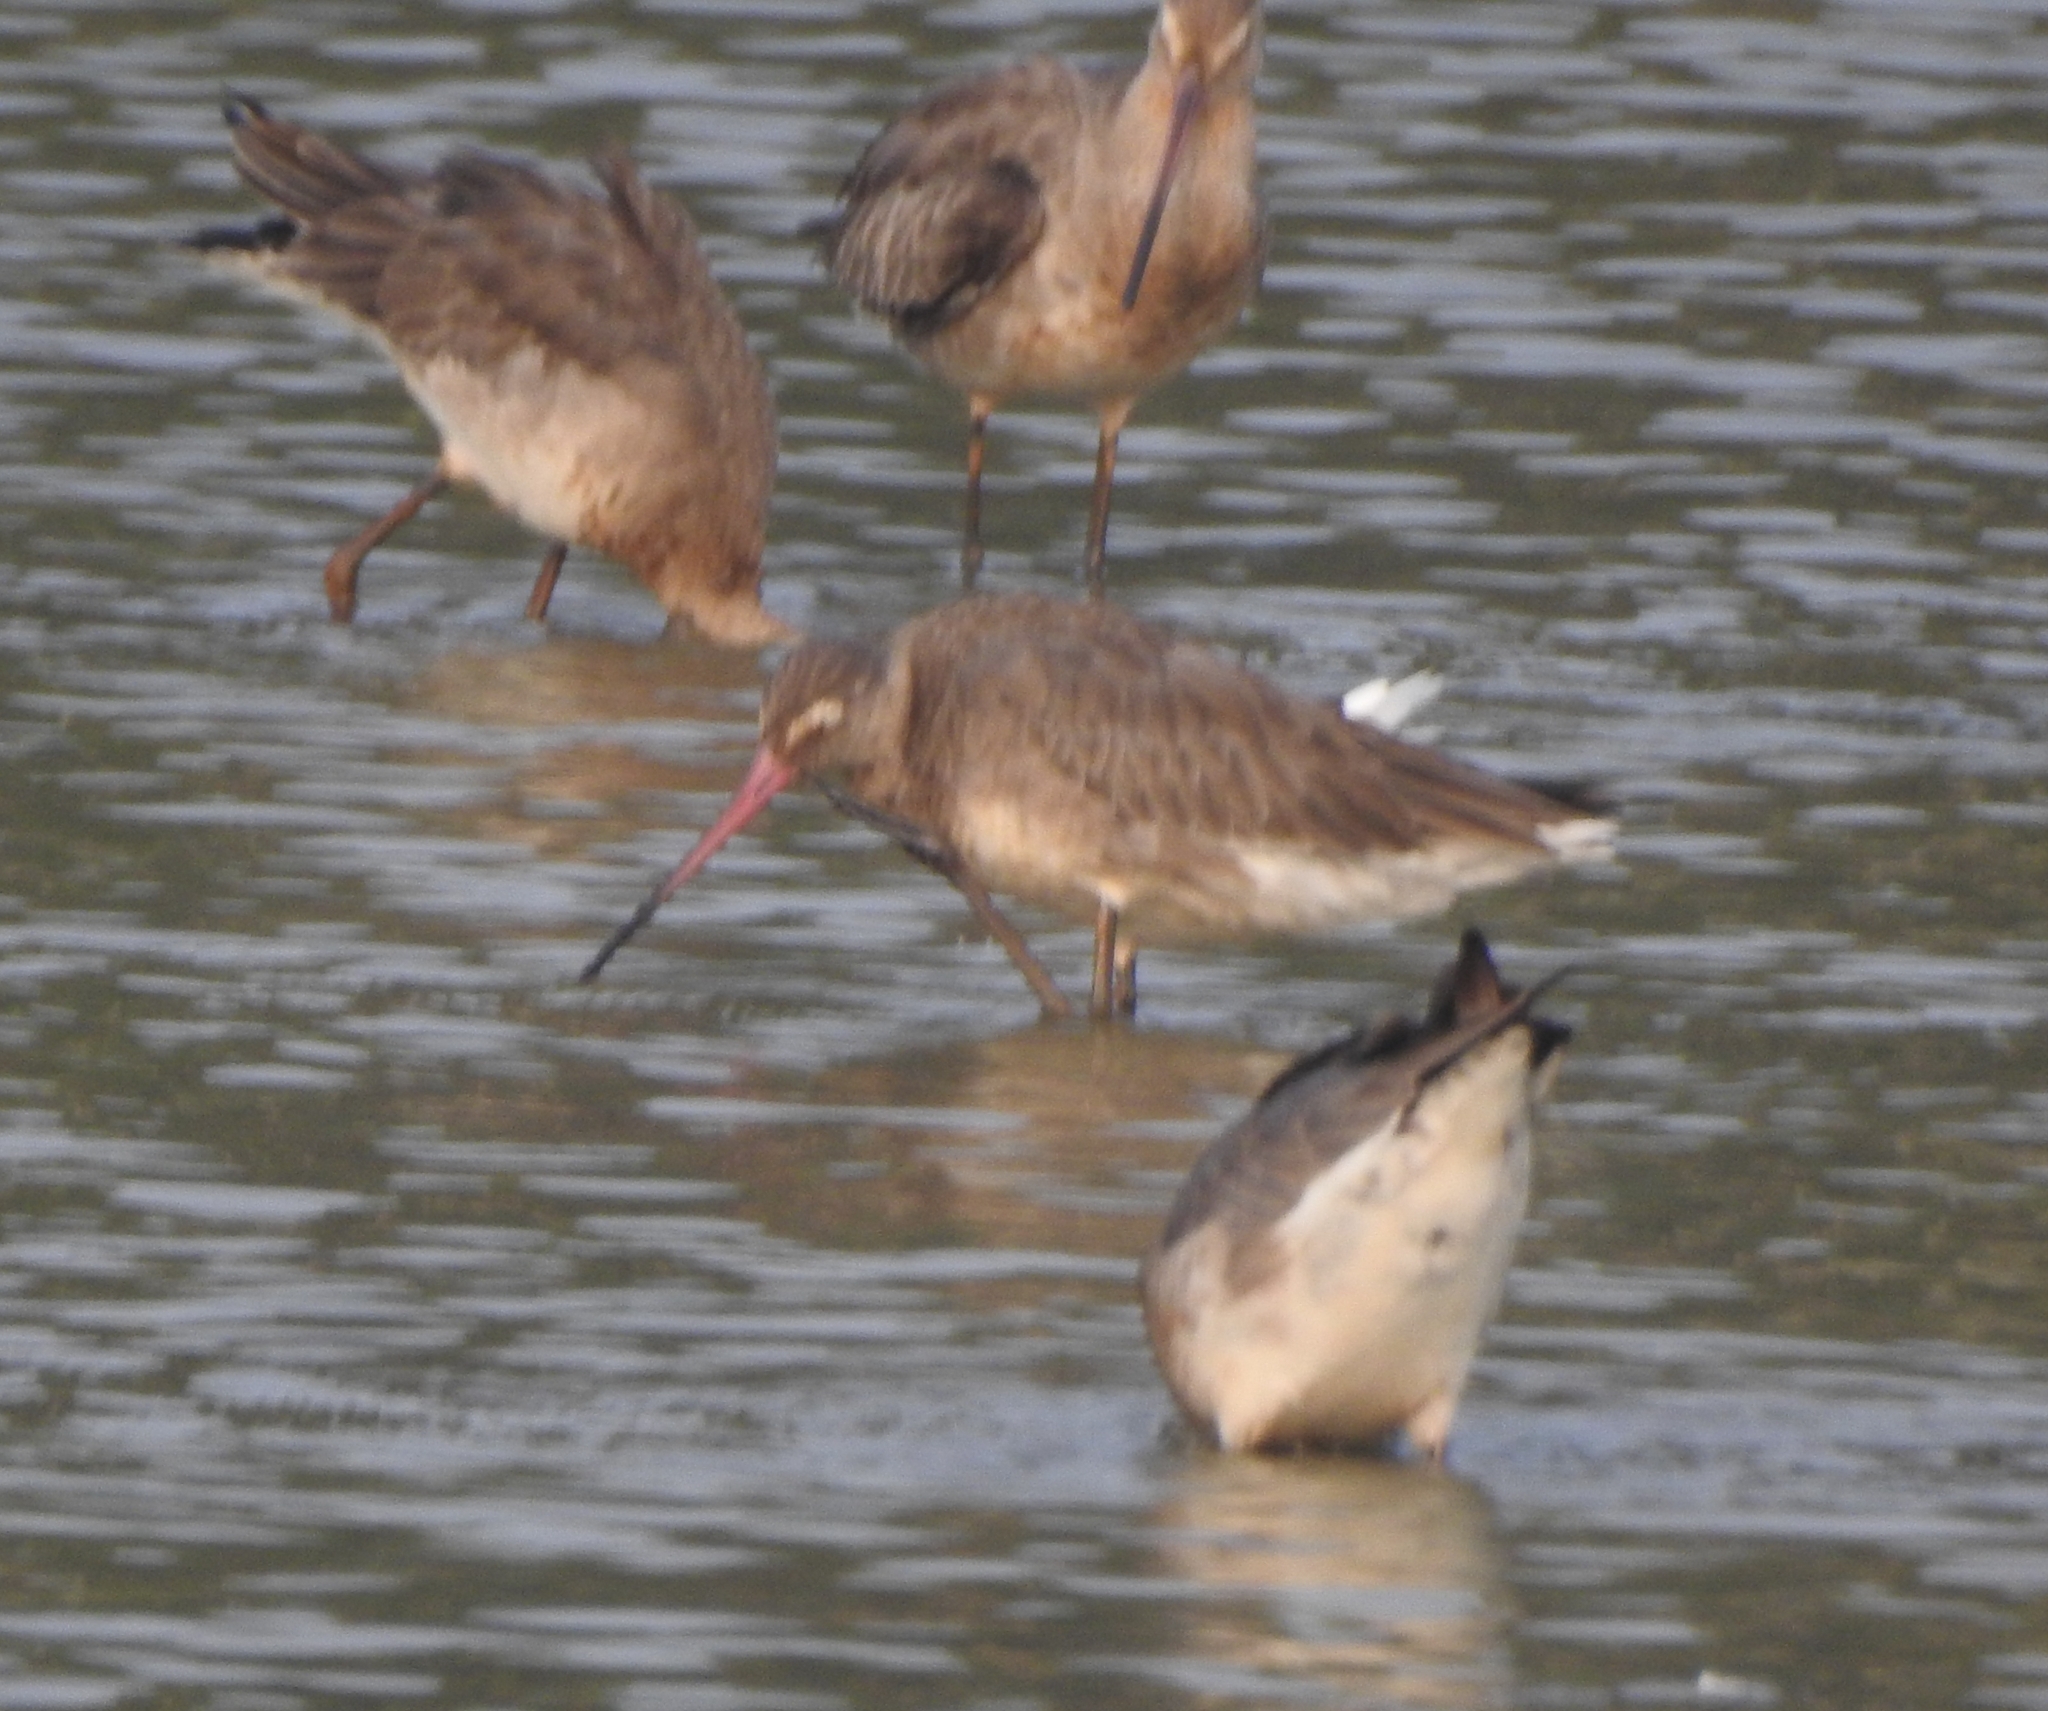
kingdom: Animalia
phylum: Chordata
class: Aves
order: Charadriiformes
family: Scolopacidae
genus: Limosa
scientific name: Limosa limosa
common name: Black-tailed godwit
